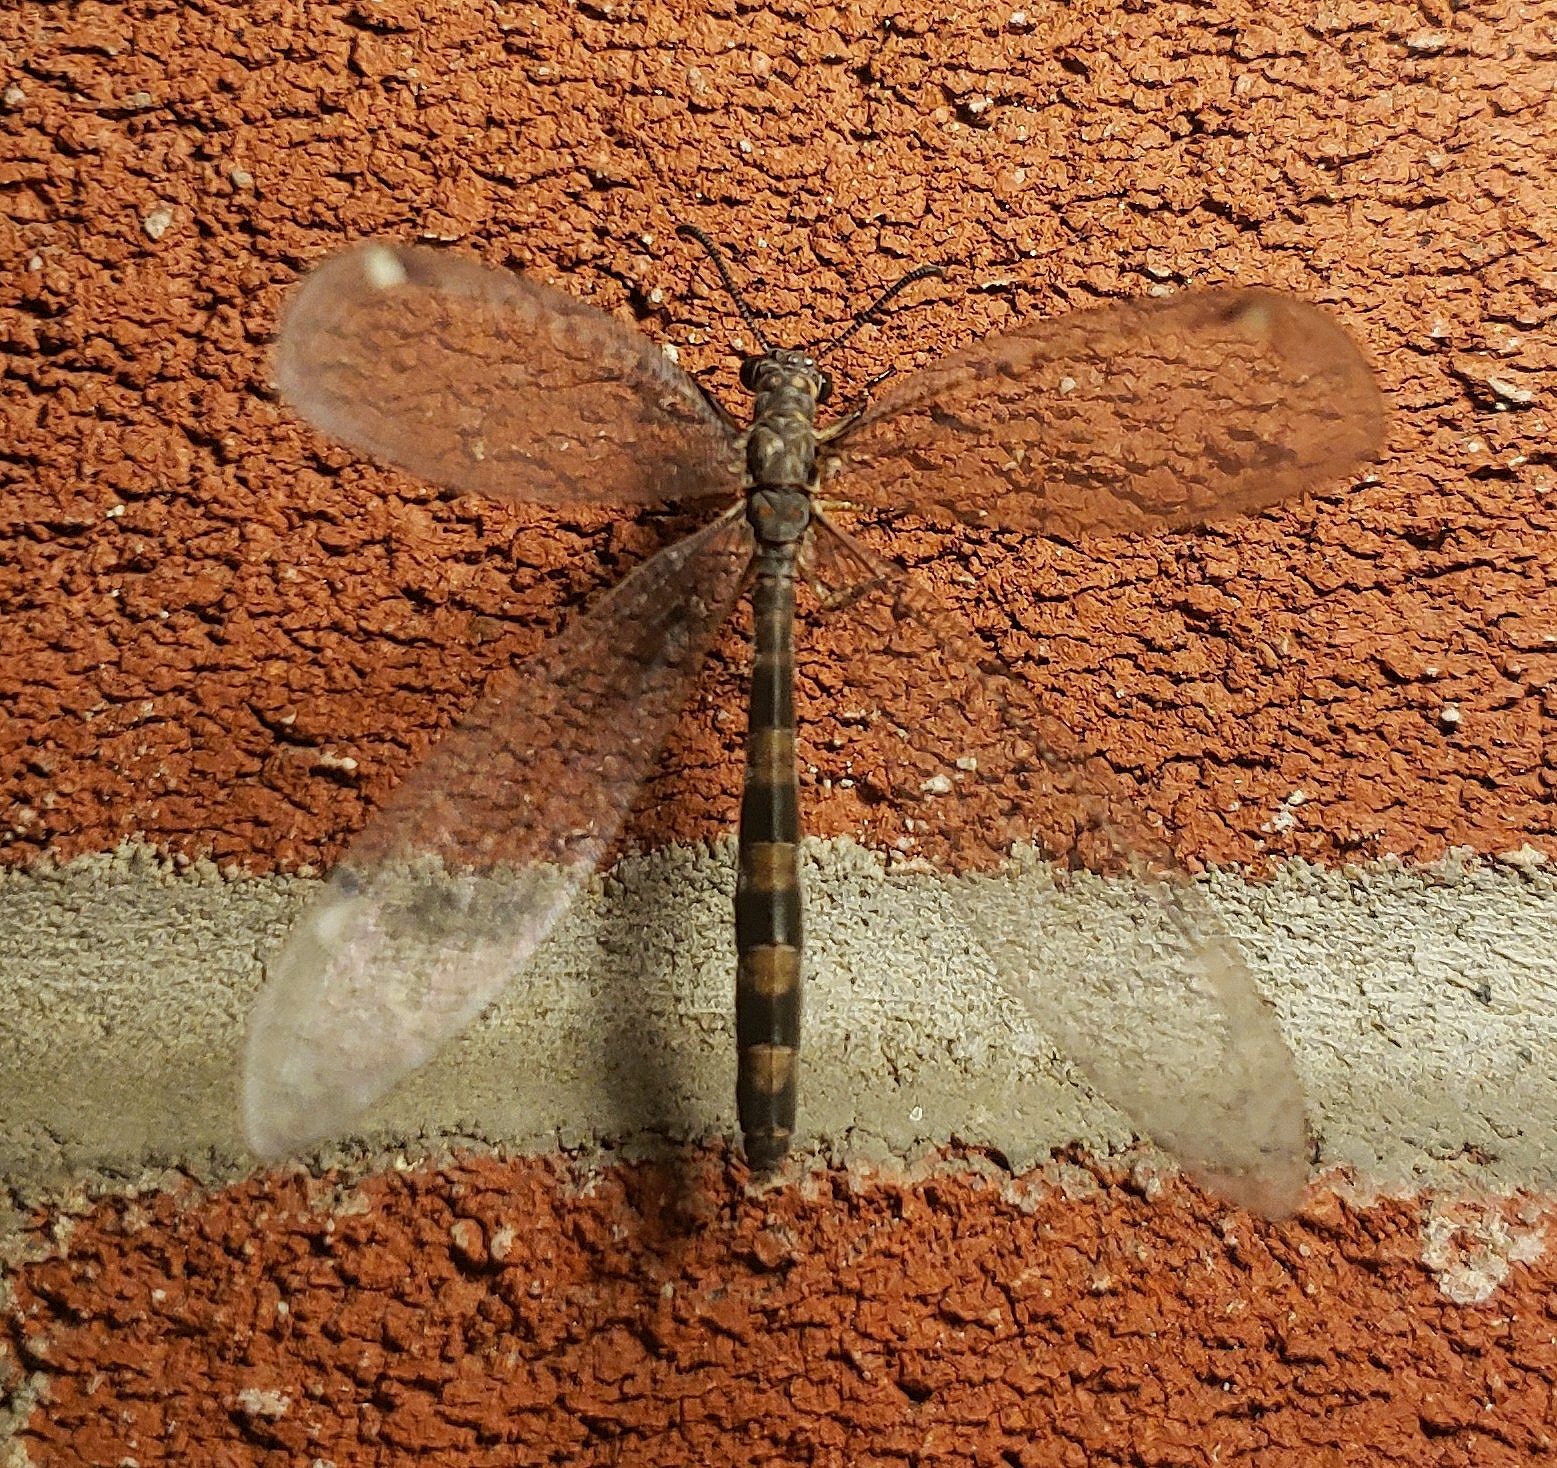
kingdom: Animalia
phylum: Arthropoda
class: Insecta
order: Neuroptera
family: Myrmeleontidae
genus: Myrmeleon
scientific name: Myrmeleon immaculatus
